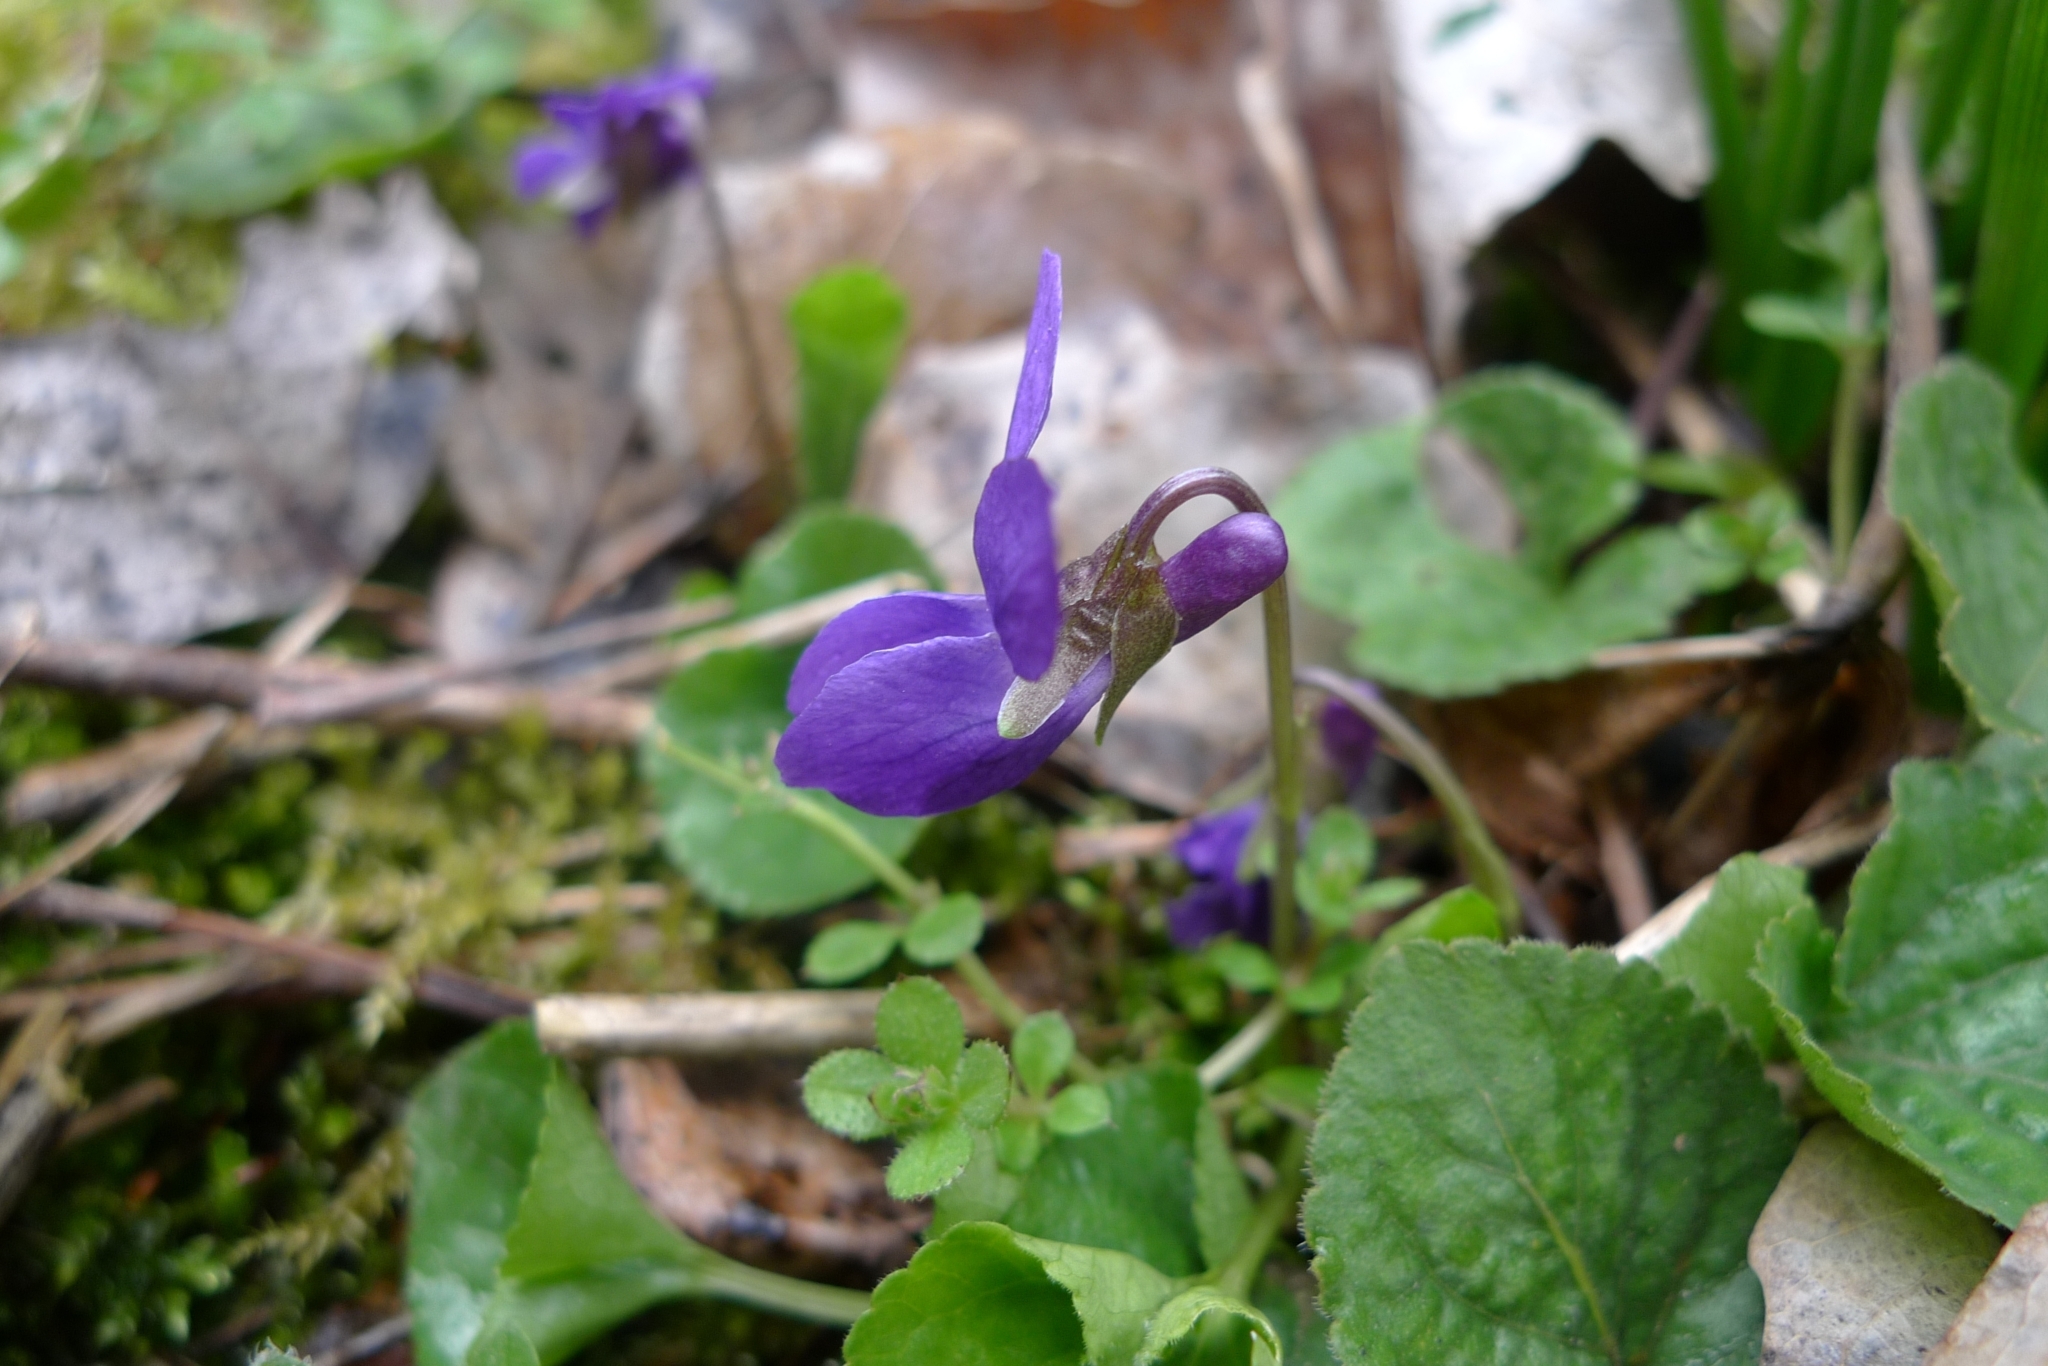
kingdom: Plantae
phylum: Tracheophyta
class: Magnoliopsida
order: Malpighiales
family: Violaceae
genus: Viola
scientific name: Viola odorata
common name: Sweet violet
